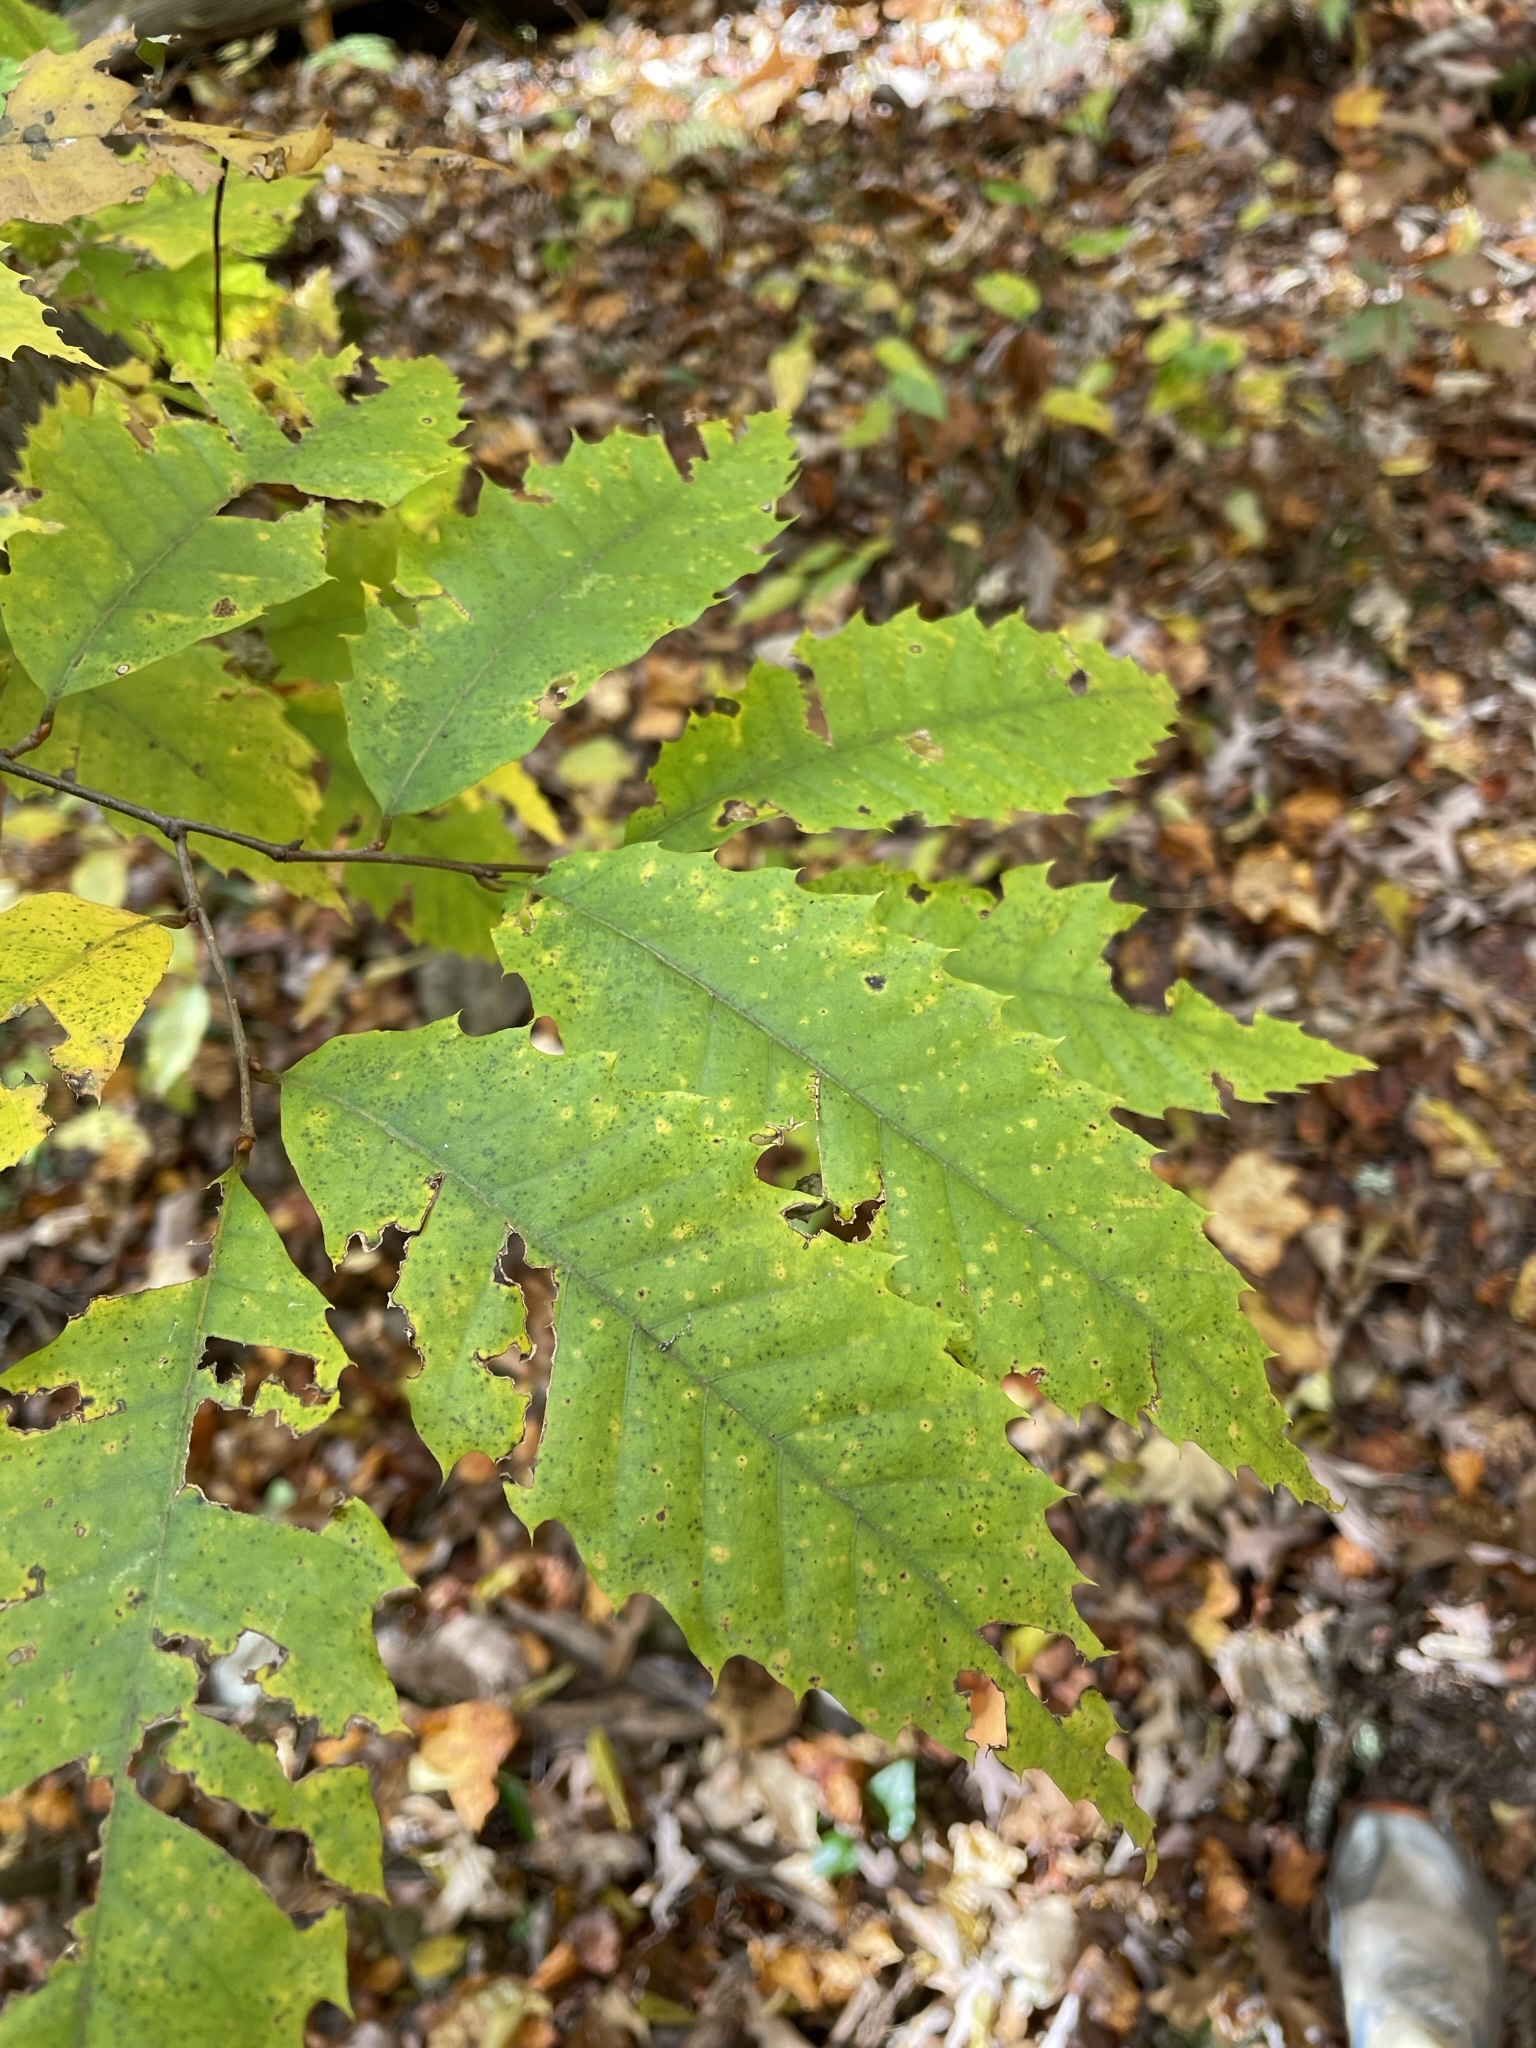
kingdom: Plantae
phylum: Tracheophyta
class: Magnoliopsida
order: Fagales
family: Fagaceae
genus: Castanea
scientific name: Castanea dentata
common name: American chestnut
